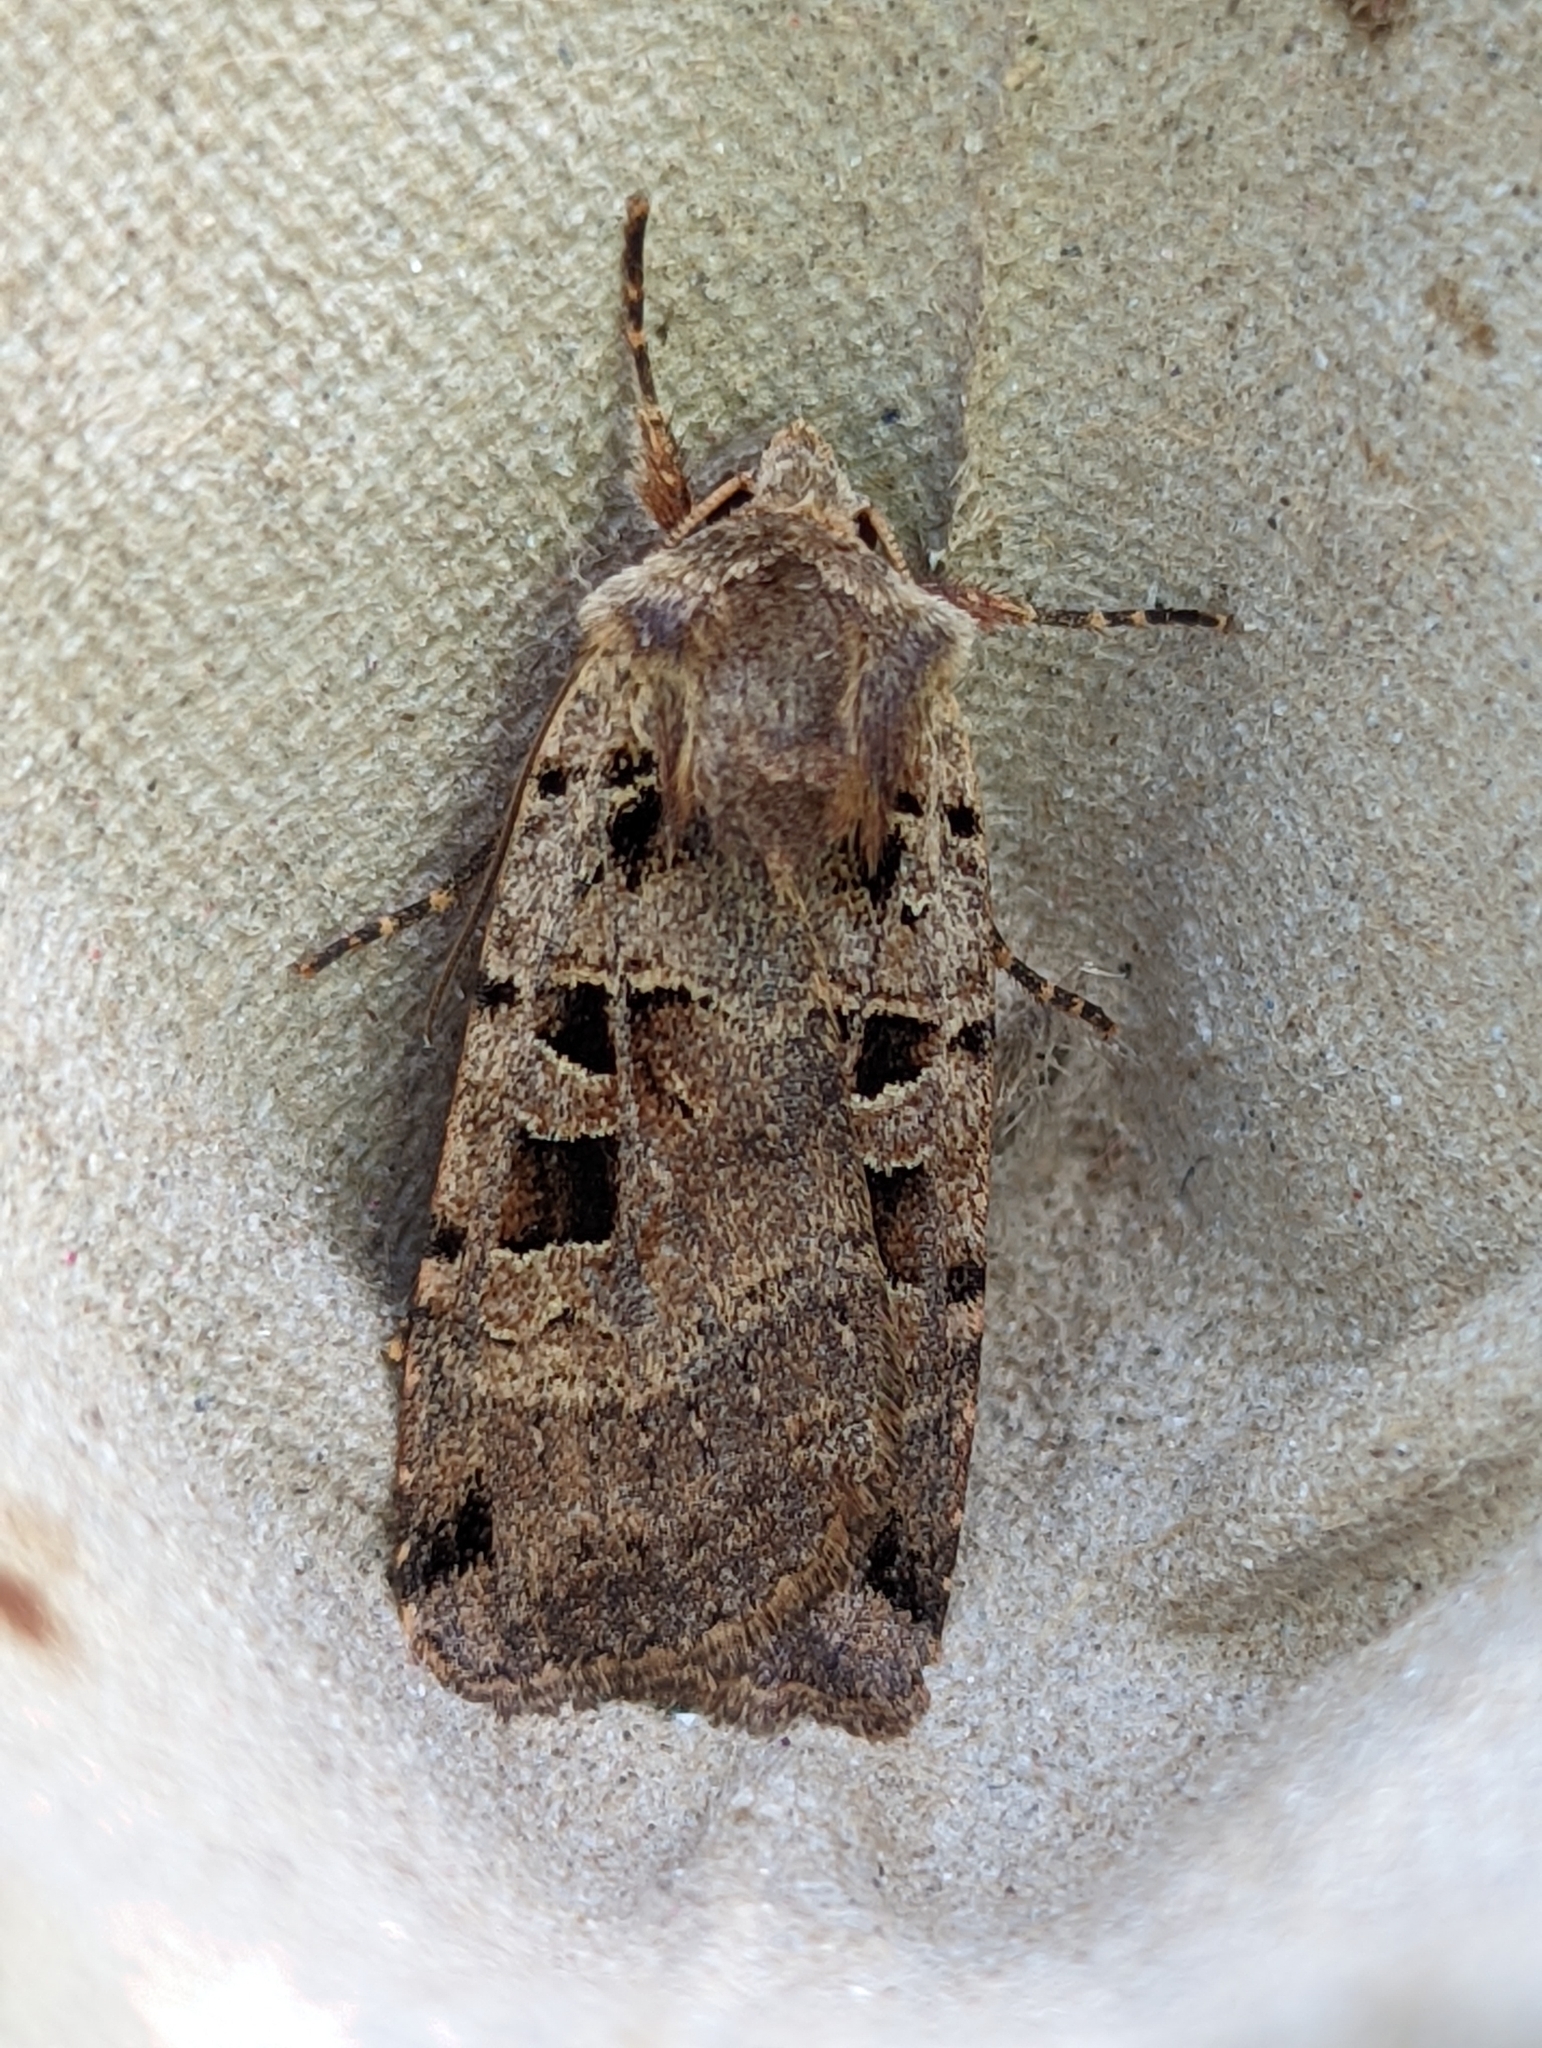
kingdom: Animalia
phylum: Arthropoda
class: Insecta
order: Lepidoptera
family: Noctuidae
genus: Xestia
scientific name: Xestia triangulum
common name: Double square-spot
